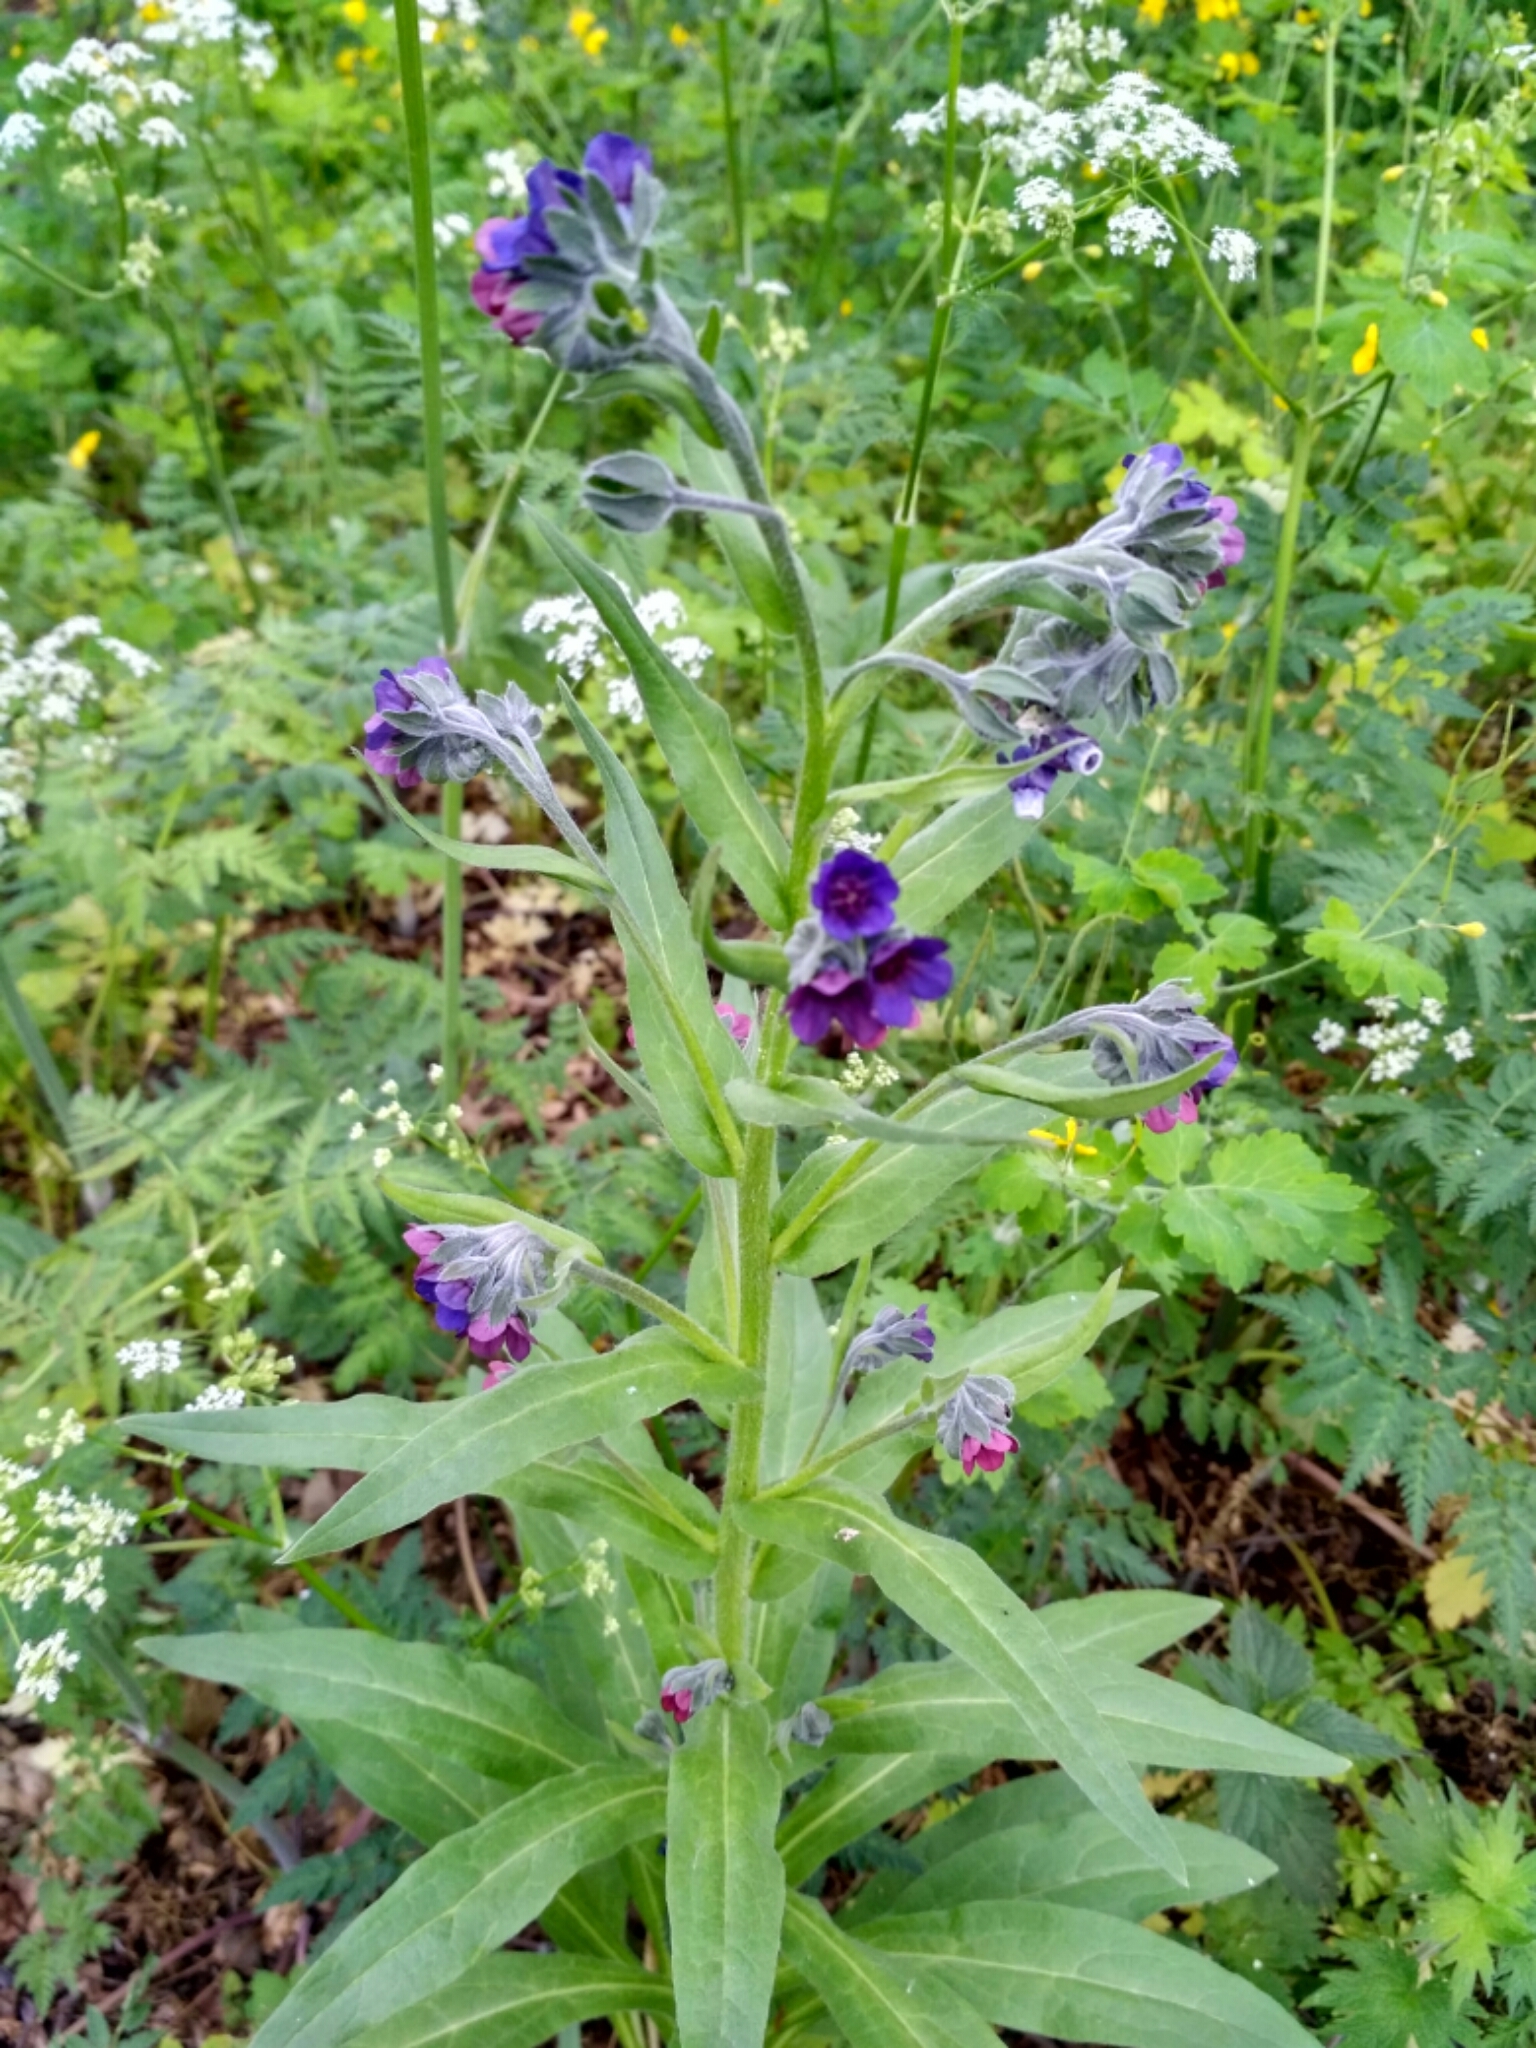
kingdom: Plantae
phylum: Tracheophyta
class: Magnoliopsida
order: Boraginales
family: Boraginaceae
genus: Cynoglossum
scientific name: Cynoglossum officinale
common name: Hound's-tongue
